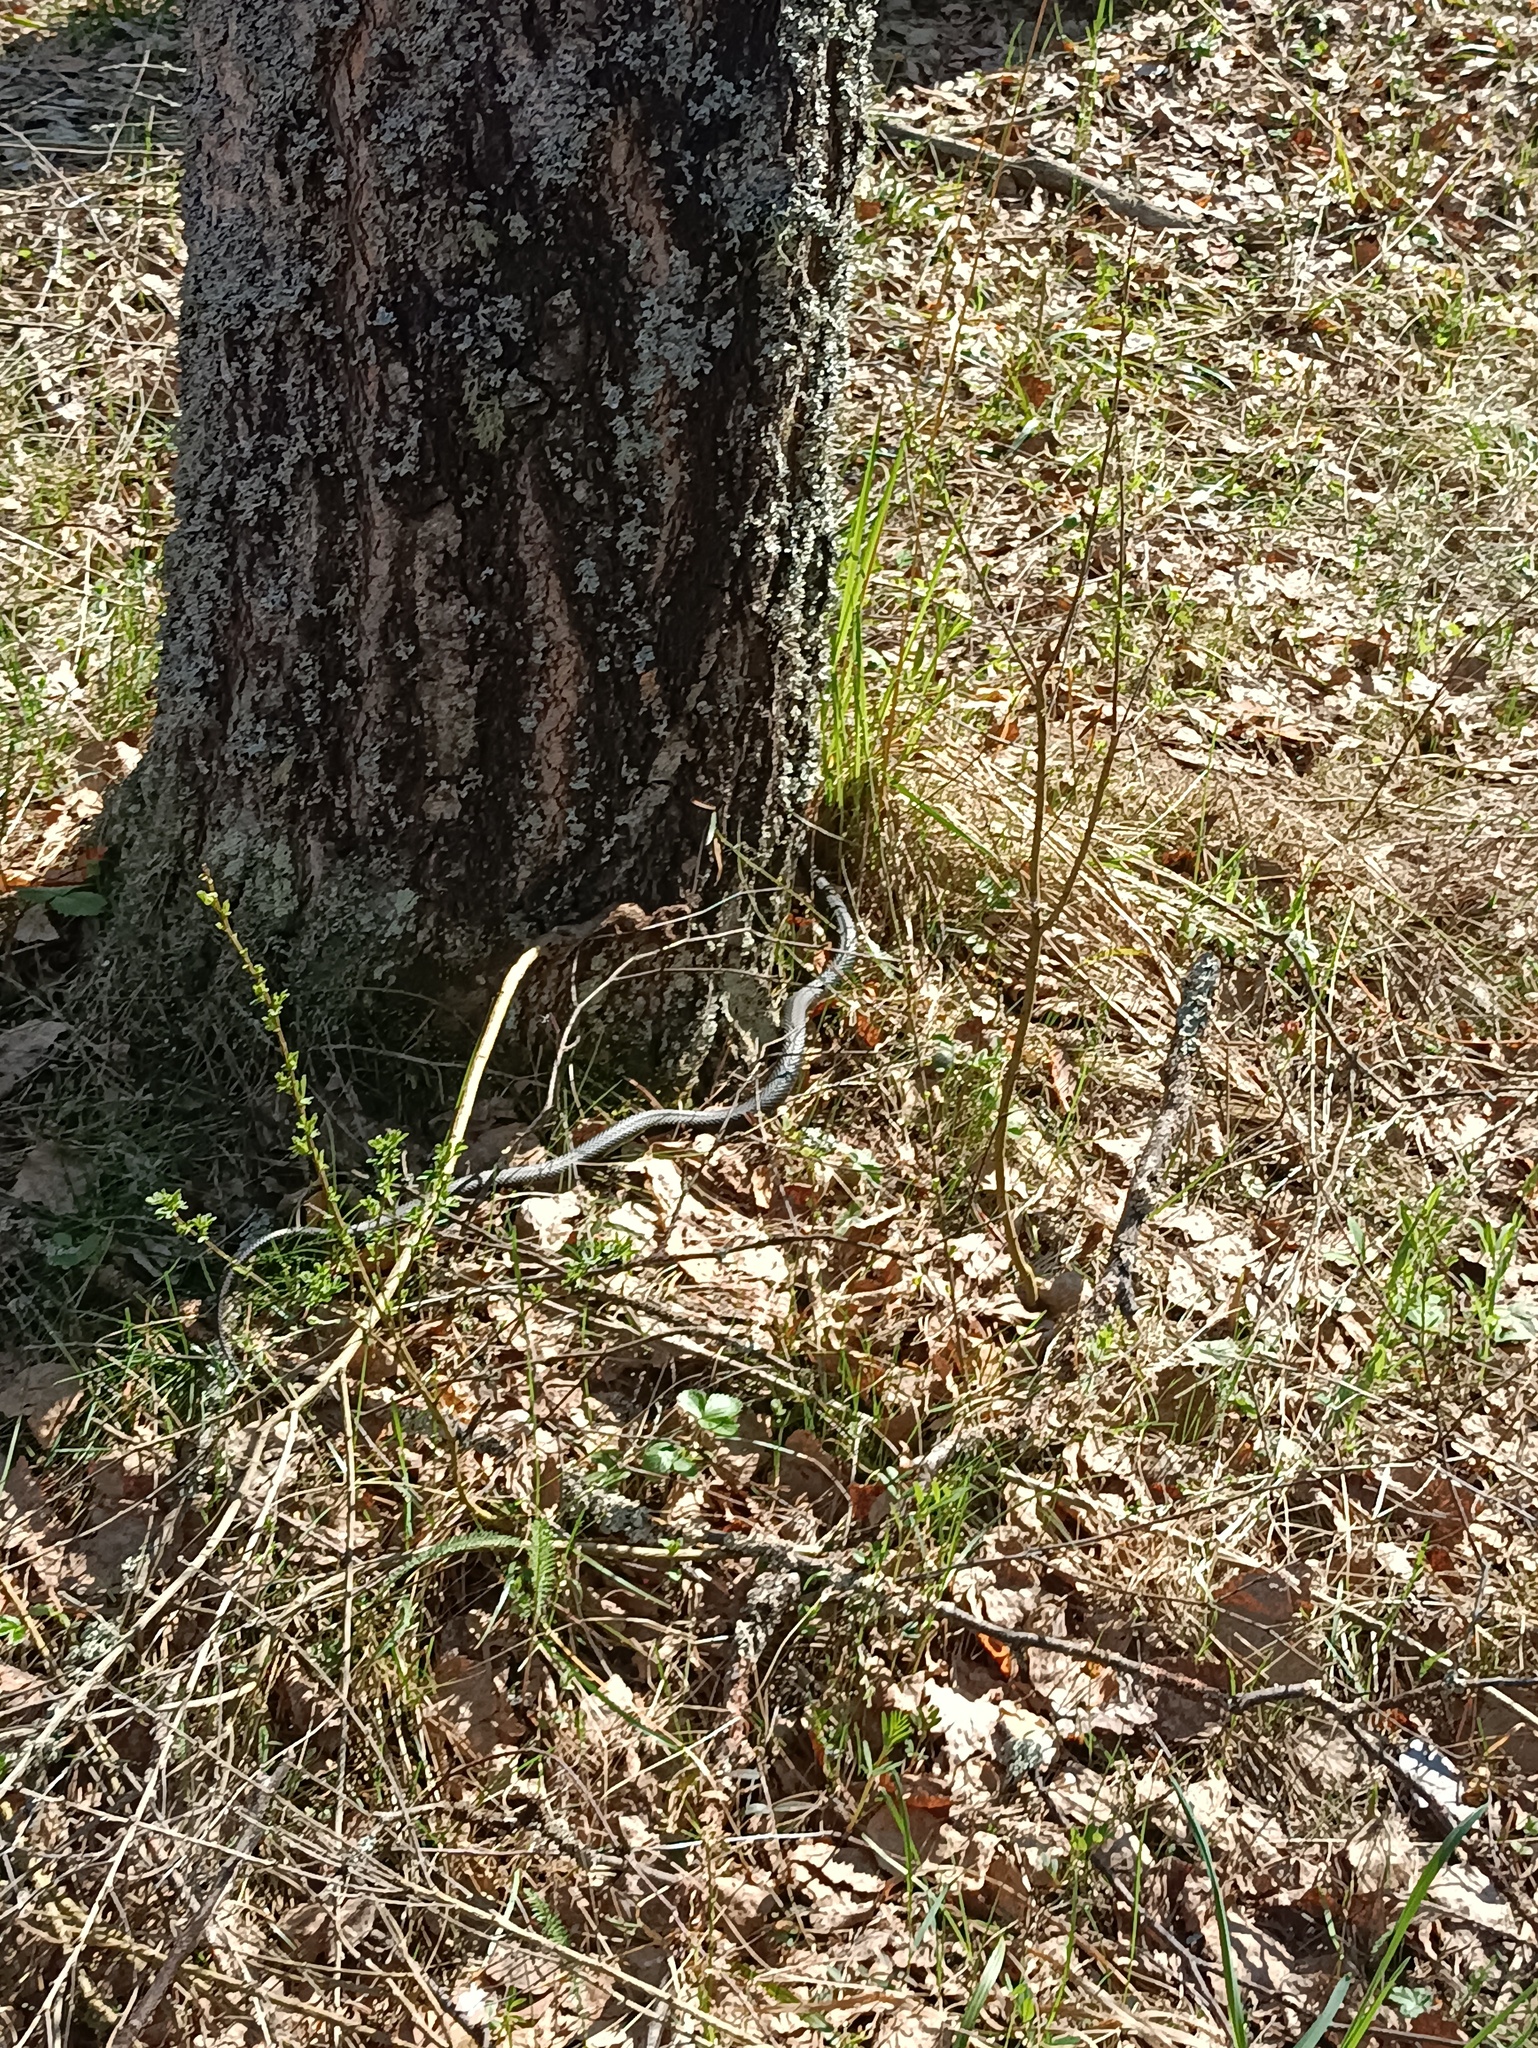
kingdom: Animalia
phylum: Chordata
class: Squamata
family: Colubridae
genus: Natrix
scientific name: Natrix natrix
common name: Grass snake
